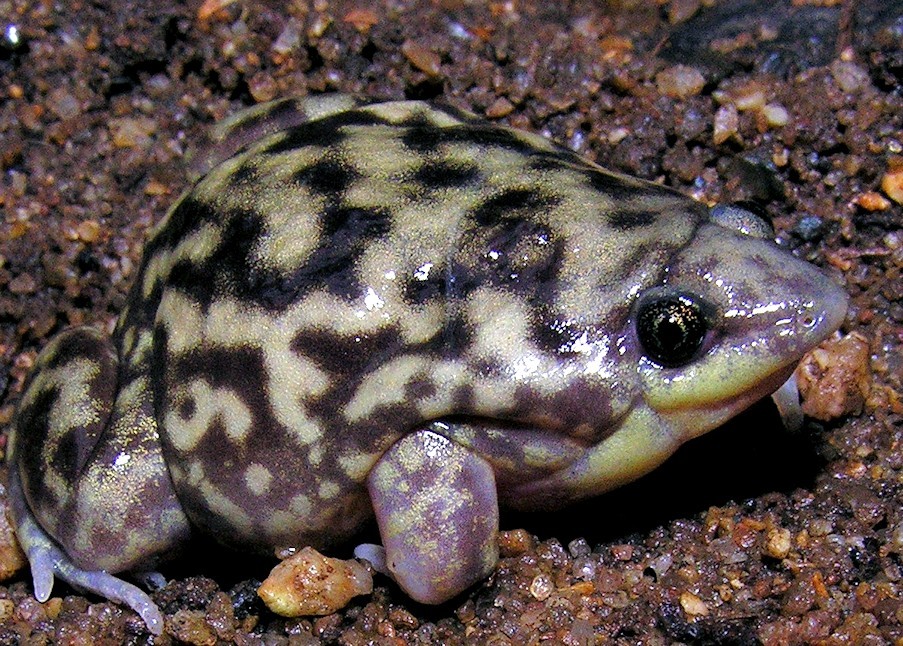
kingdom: Animalia
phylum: Chordata
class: Amphibia
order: Anura
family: Hemisotidae
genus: Hemisus
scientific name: Hemisus marmoratus
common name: Mottled shovel-nosed frog
